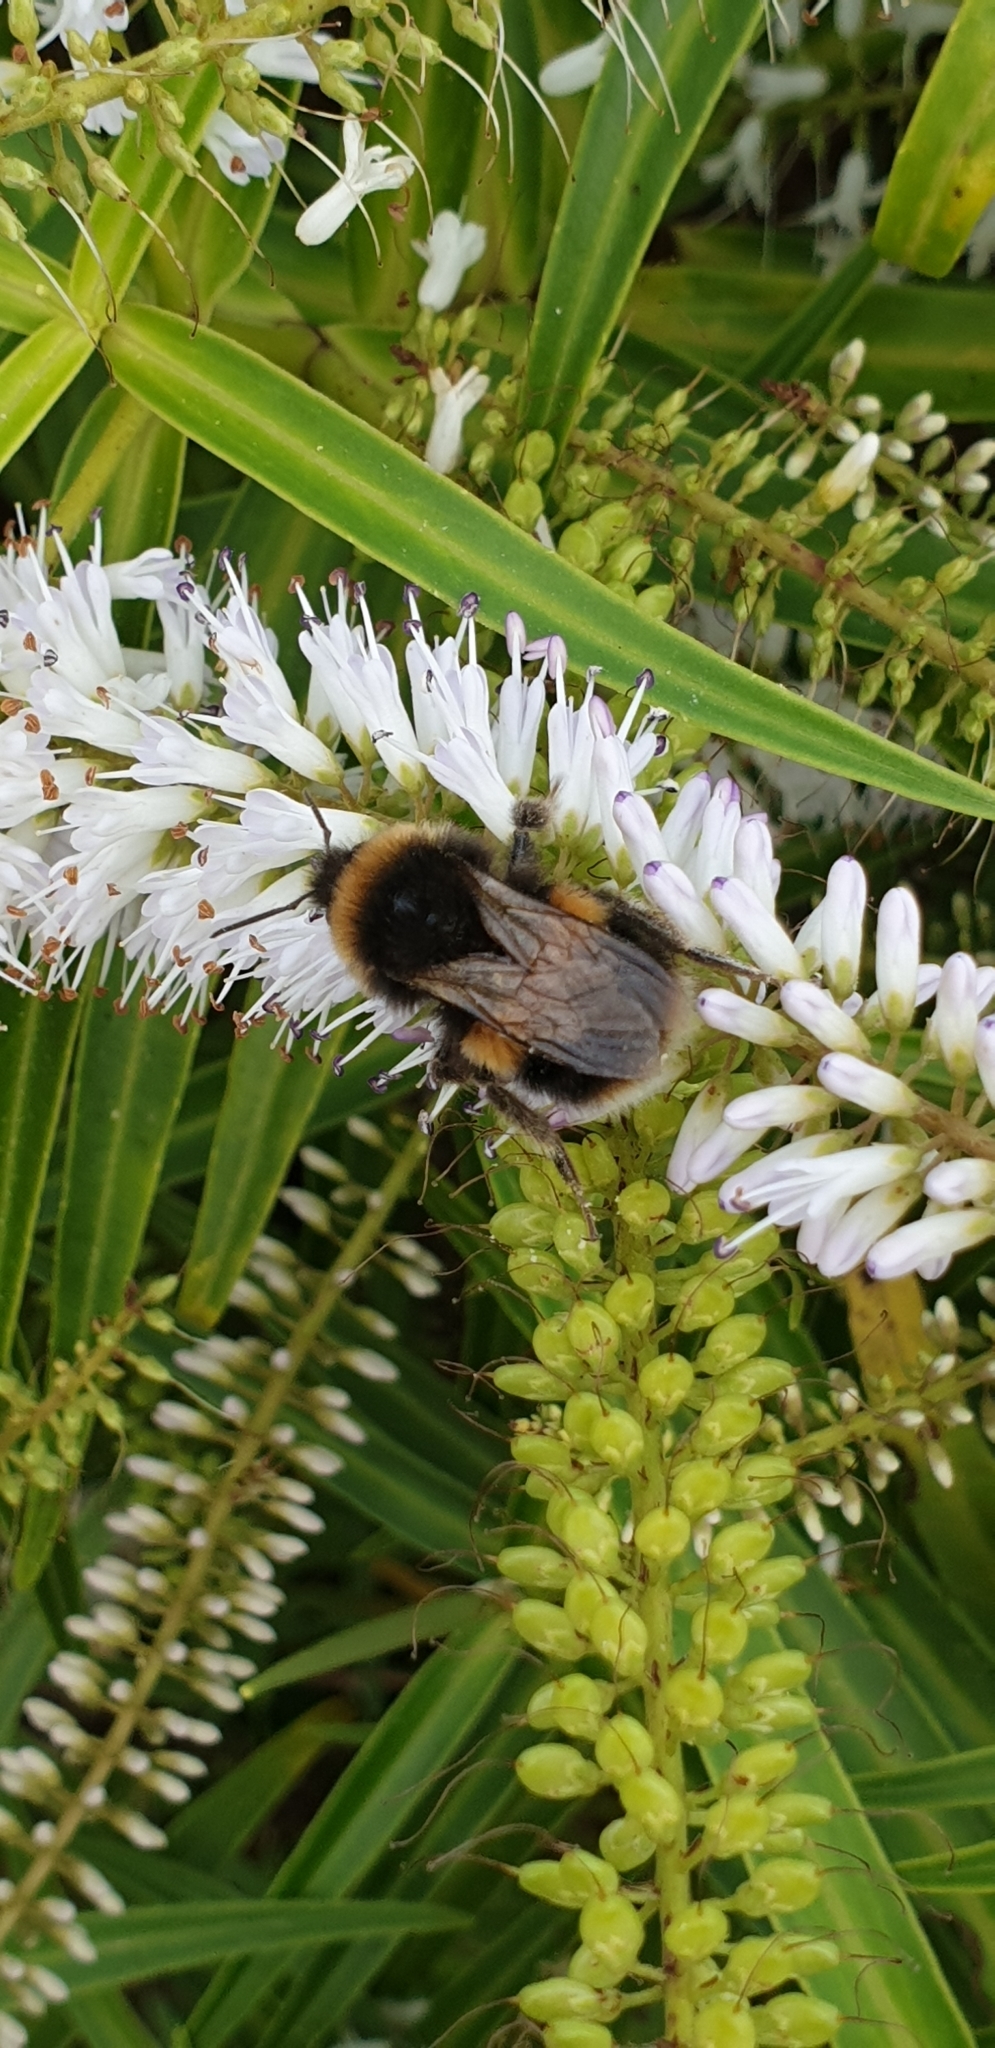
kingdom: Animalia
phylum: Arthropoda
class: Insecta
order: Hymenoptera
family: Apidae
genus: Bombus
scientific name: Bombus terrestris
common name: Buff-tailed bumblebee
